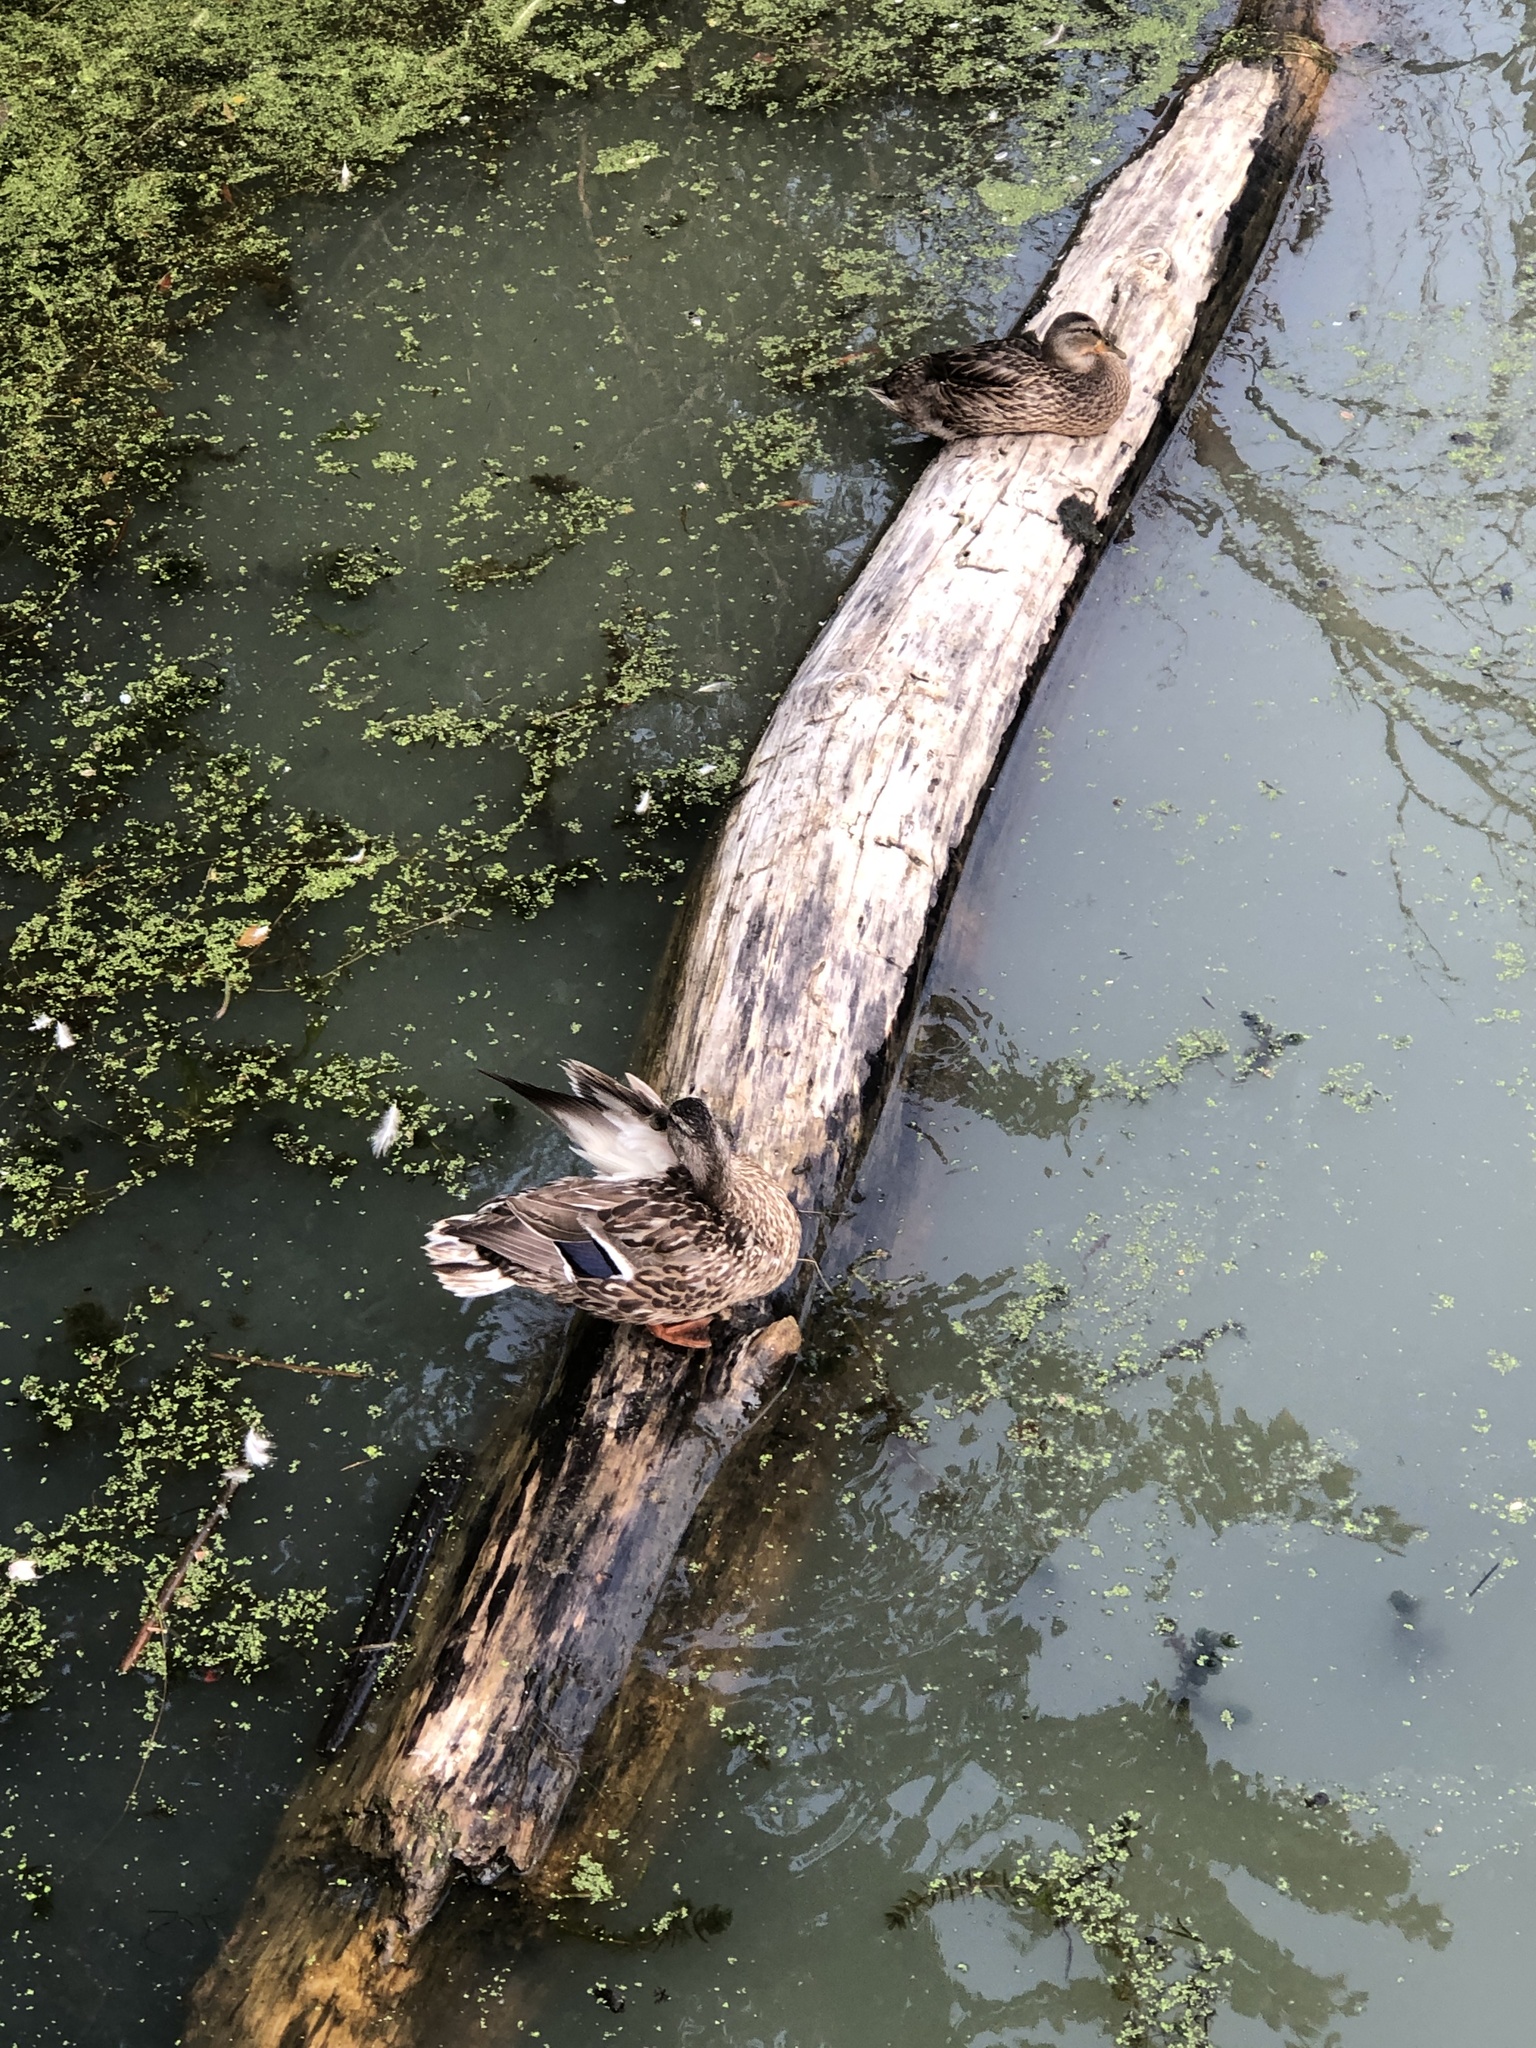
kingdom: Animalia
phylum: Chordata
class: Aves
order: Anseriformes
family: Anatidae
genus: Anas
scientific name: Anas platyrhynchos
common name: Mallard
